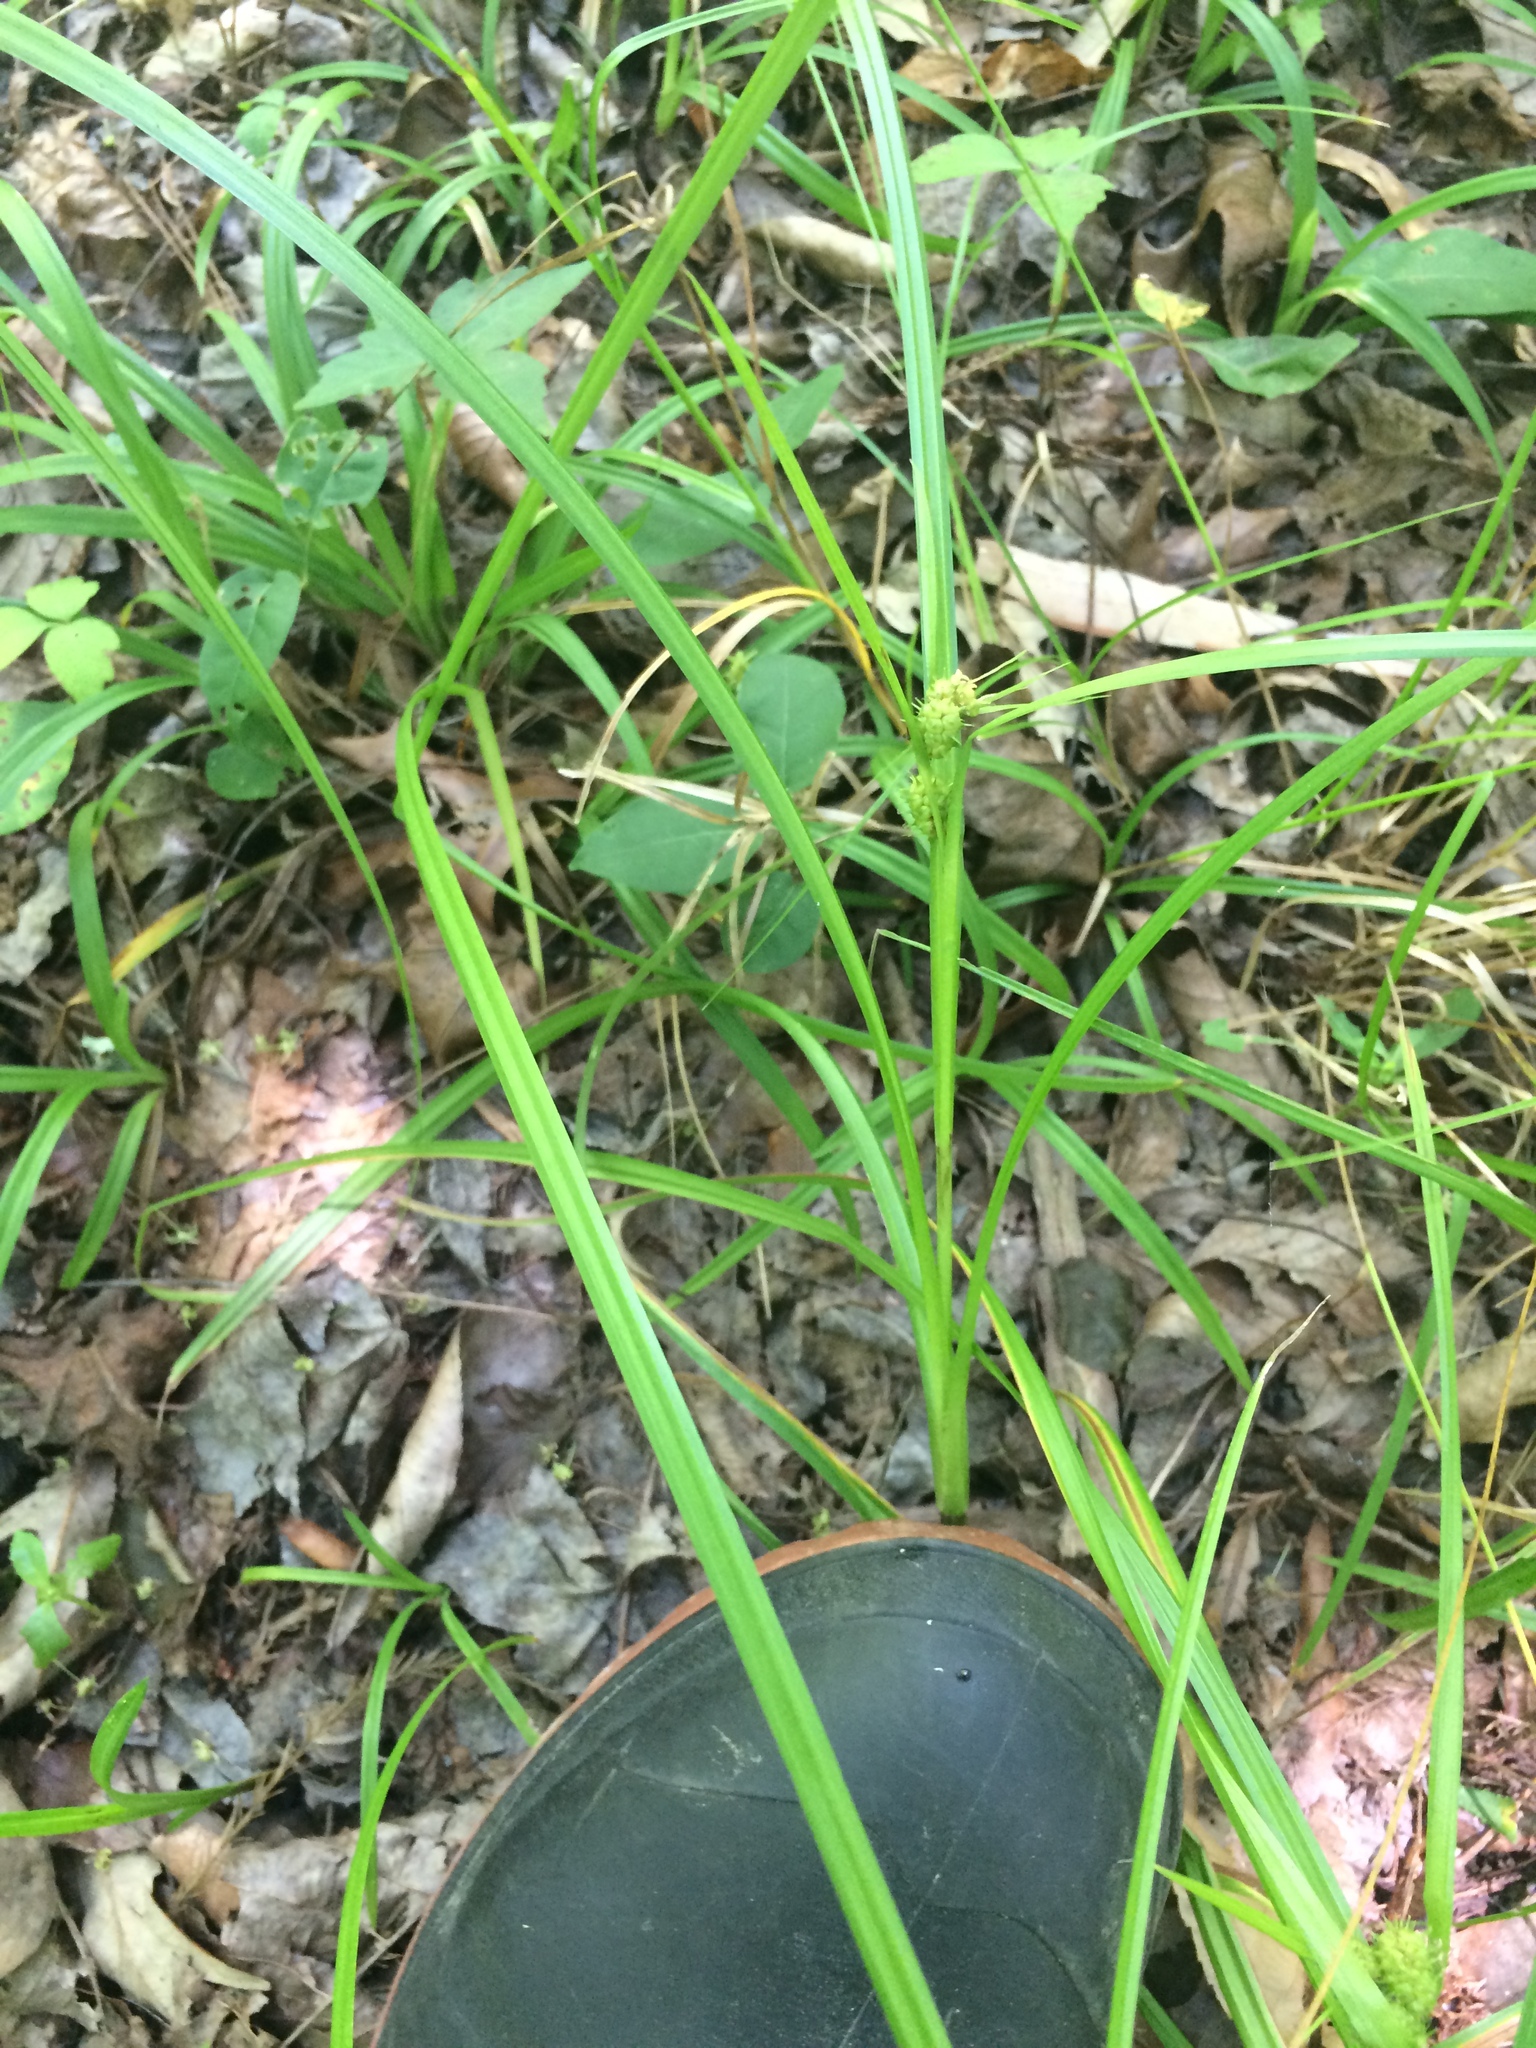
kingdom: Plantae
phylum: Tracheophyta
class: Liliopsida
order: Poales
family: Cyperaceae
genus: Carex
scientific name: Carex aureolensis
